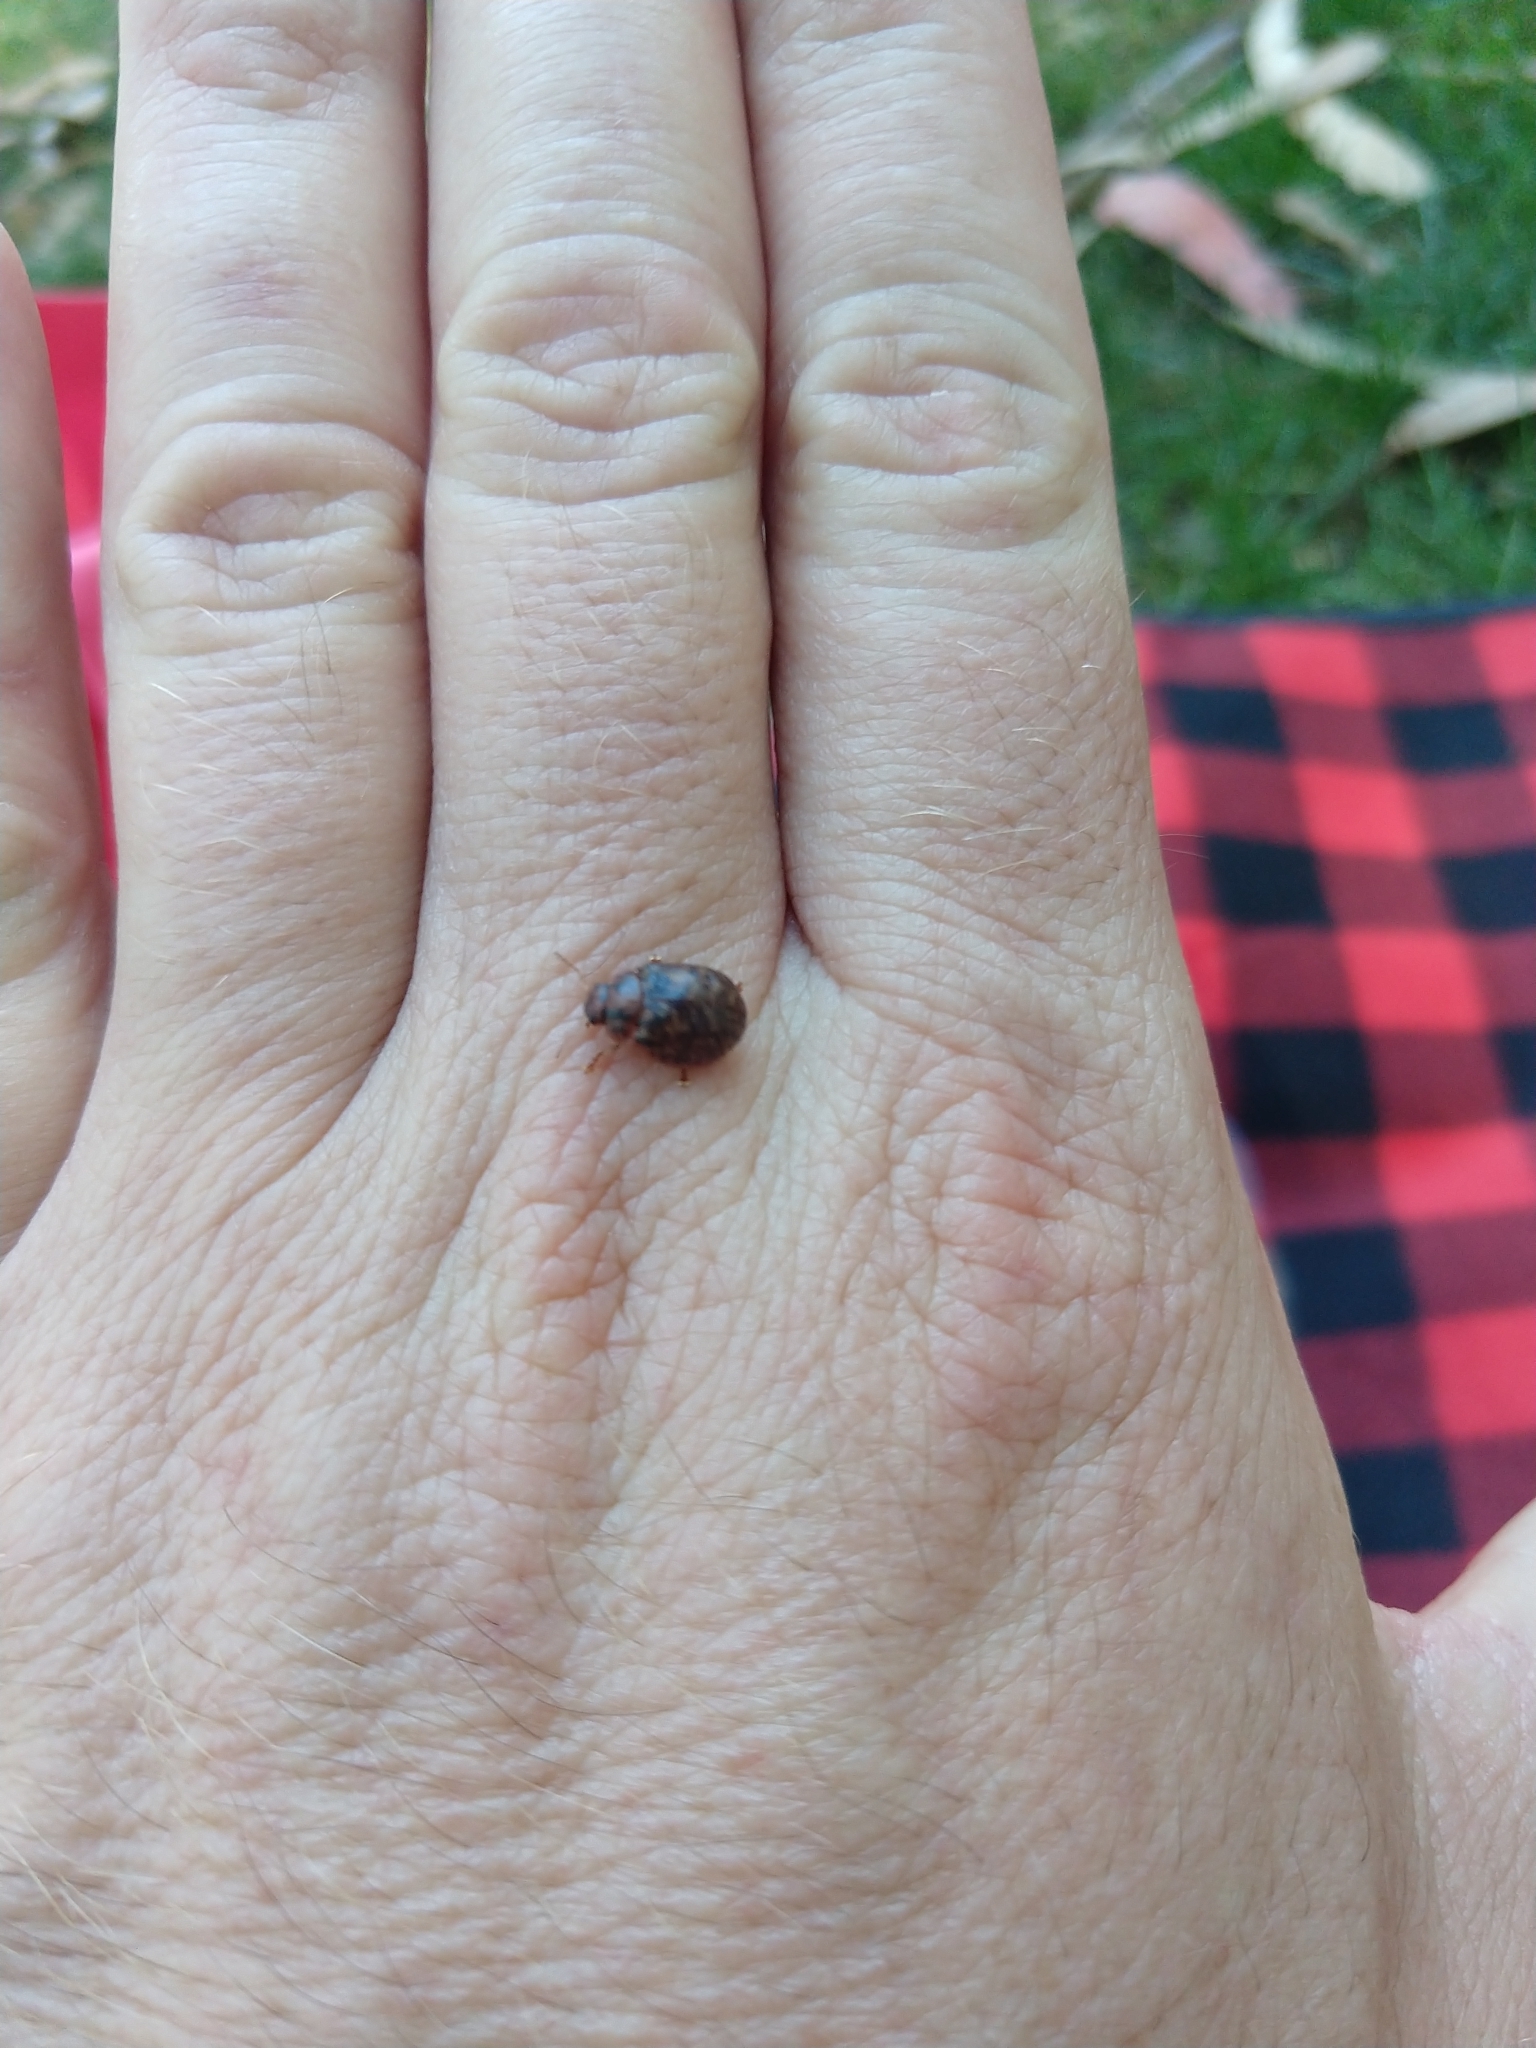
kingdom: Animalia
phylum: Arthropoda
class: Insecta
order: Coleoptera
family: Chrysomelidae
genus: Trachymela
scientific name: Trachymela sloanei
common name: Australian tortoise beetle
